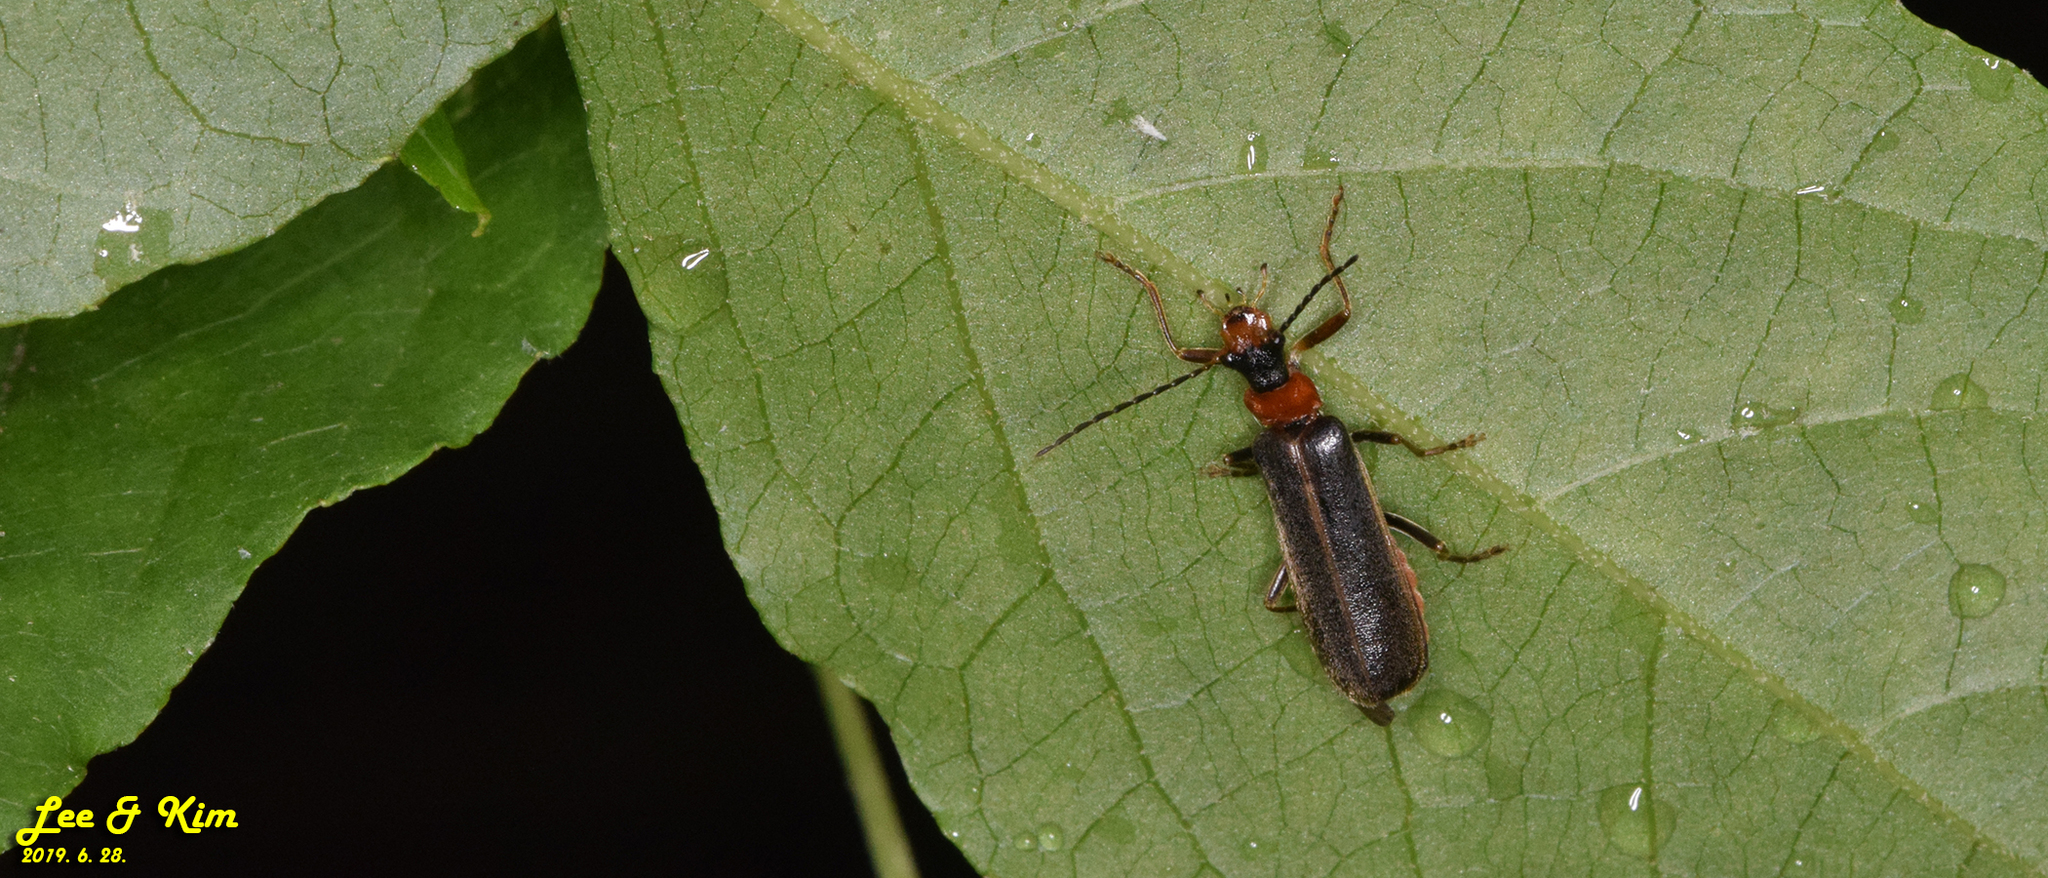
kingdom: Animalia
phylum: Arthropoda
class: Insecta
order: Coleoptera
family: Cantharidae
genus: Hatchiana
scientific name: Hatchiana glochidiatus
